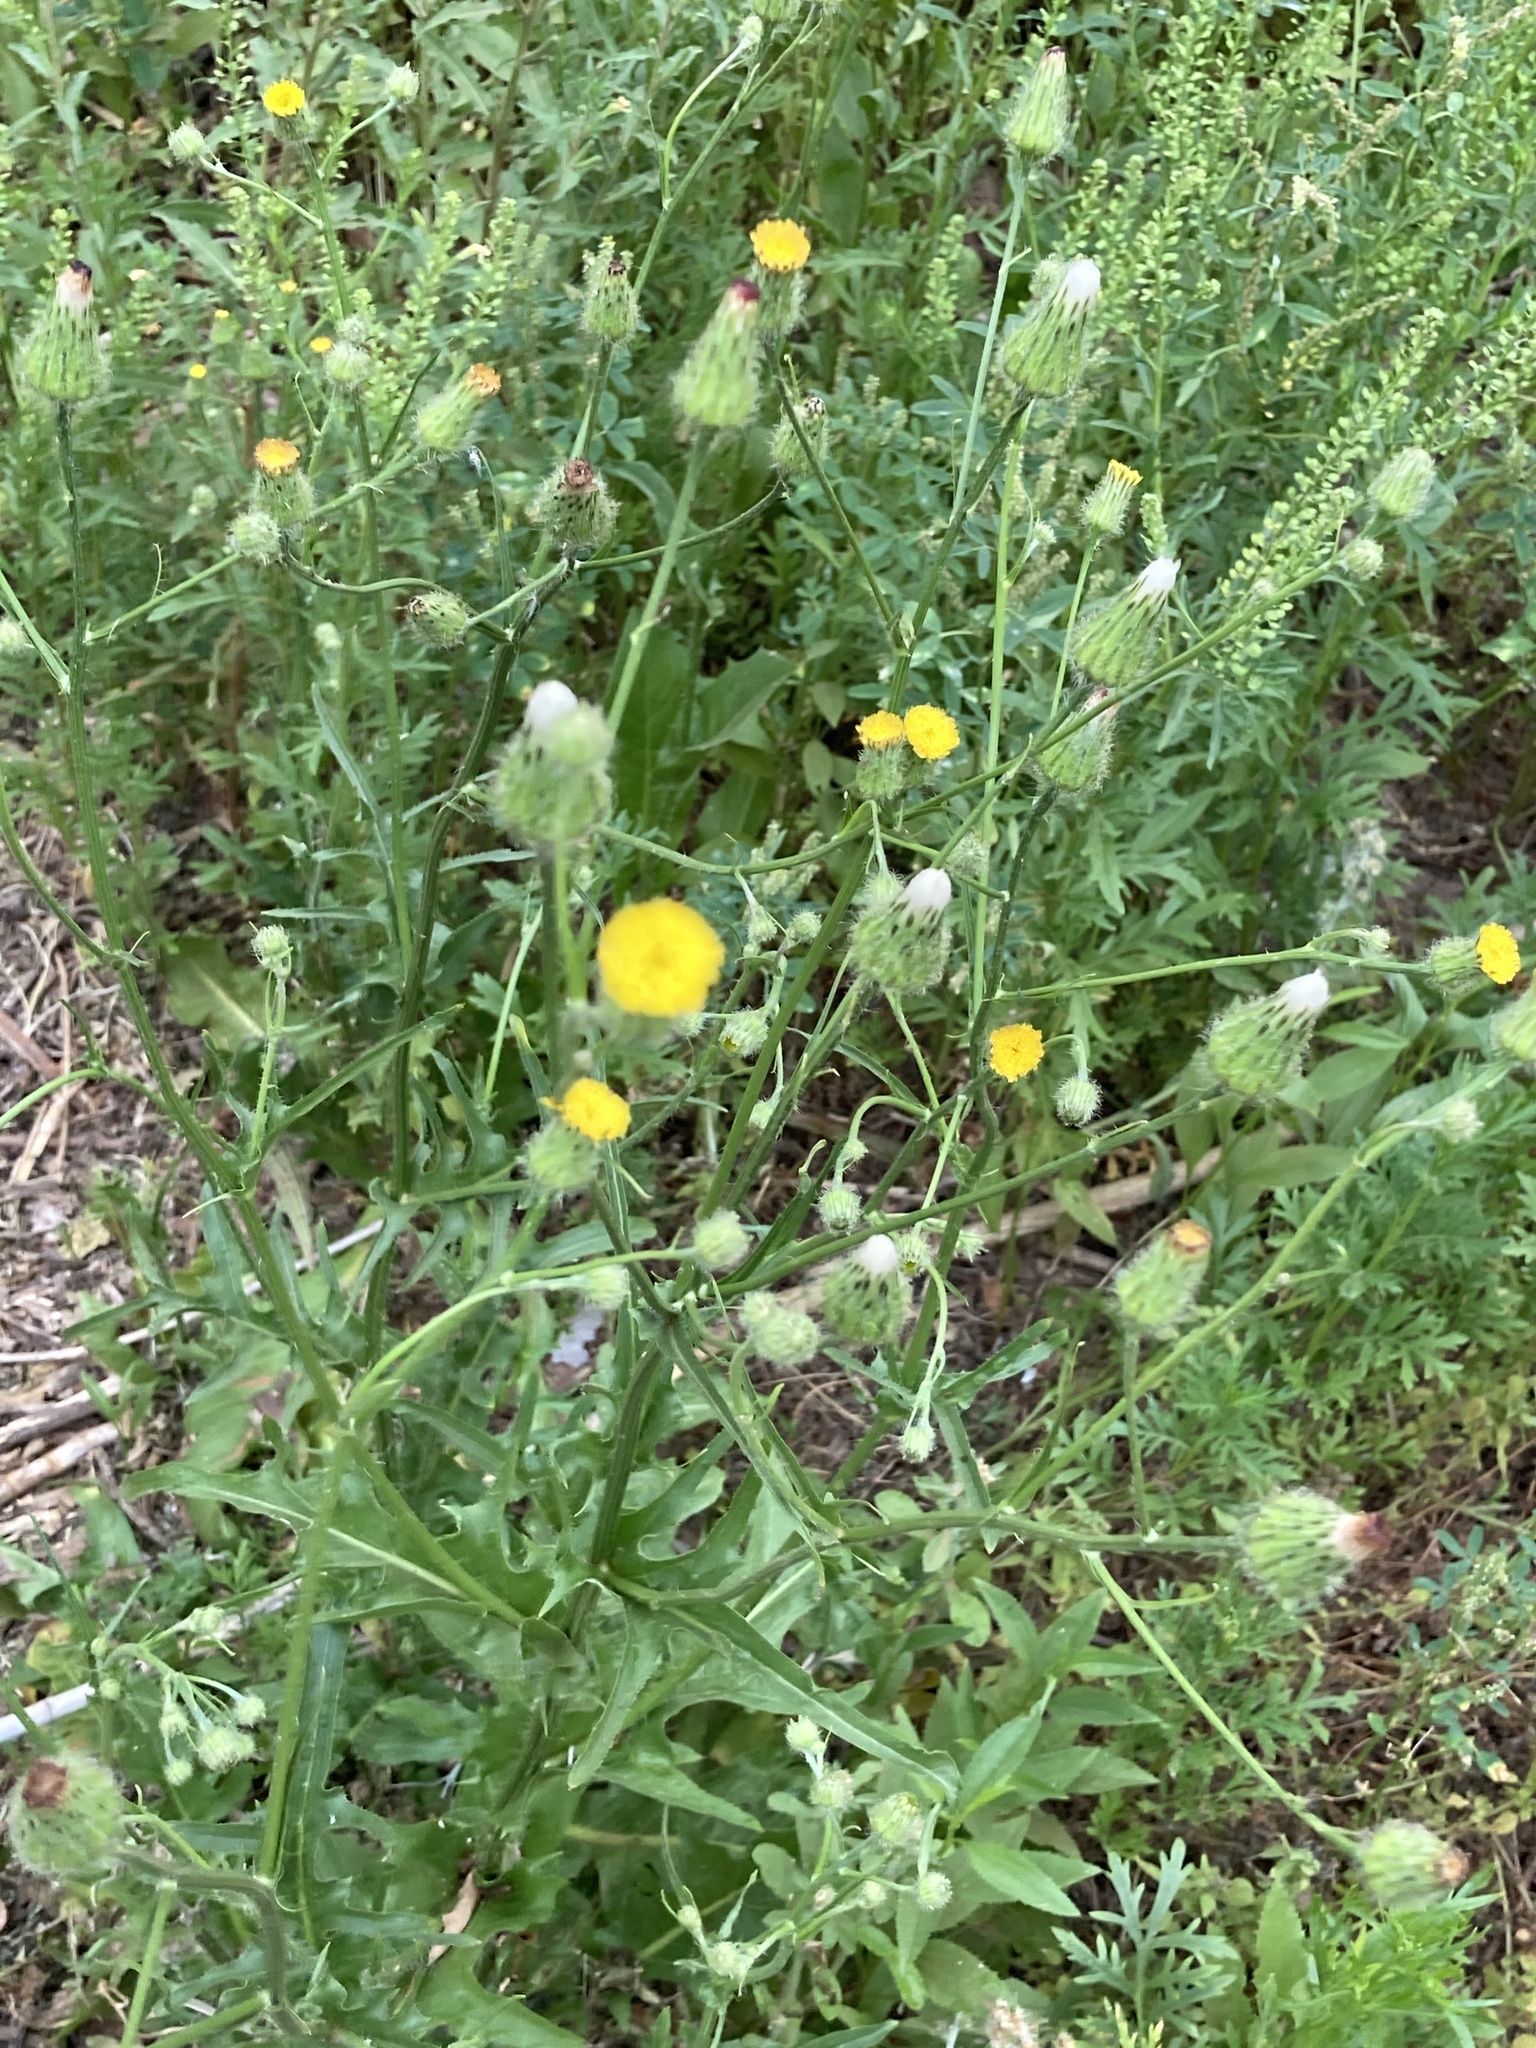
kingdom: Plantae
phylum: Tracheophyta
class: Magnoliopsida
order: Asterales
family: Asteraceae
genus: Hypochaeris
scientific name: Hypochaeris chillensis
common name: Brazilian cat's ear
